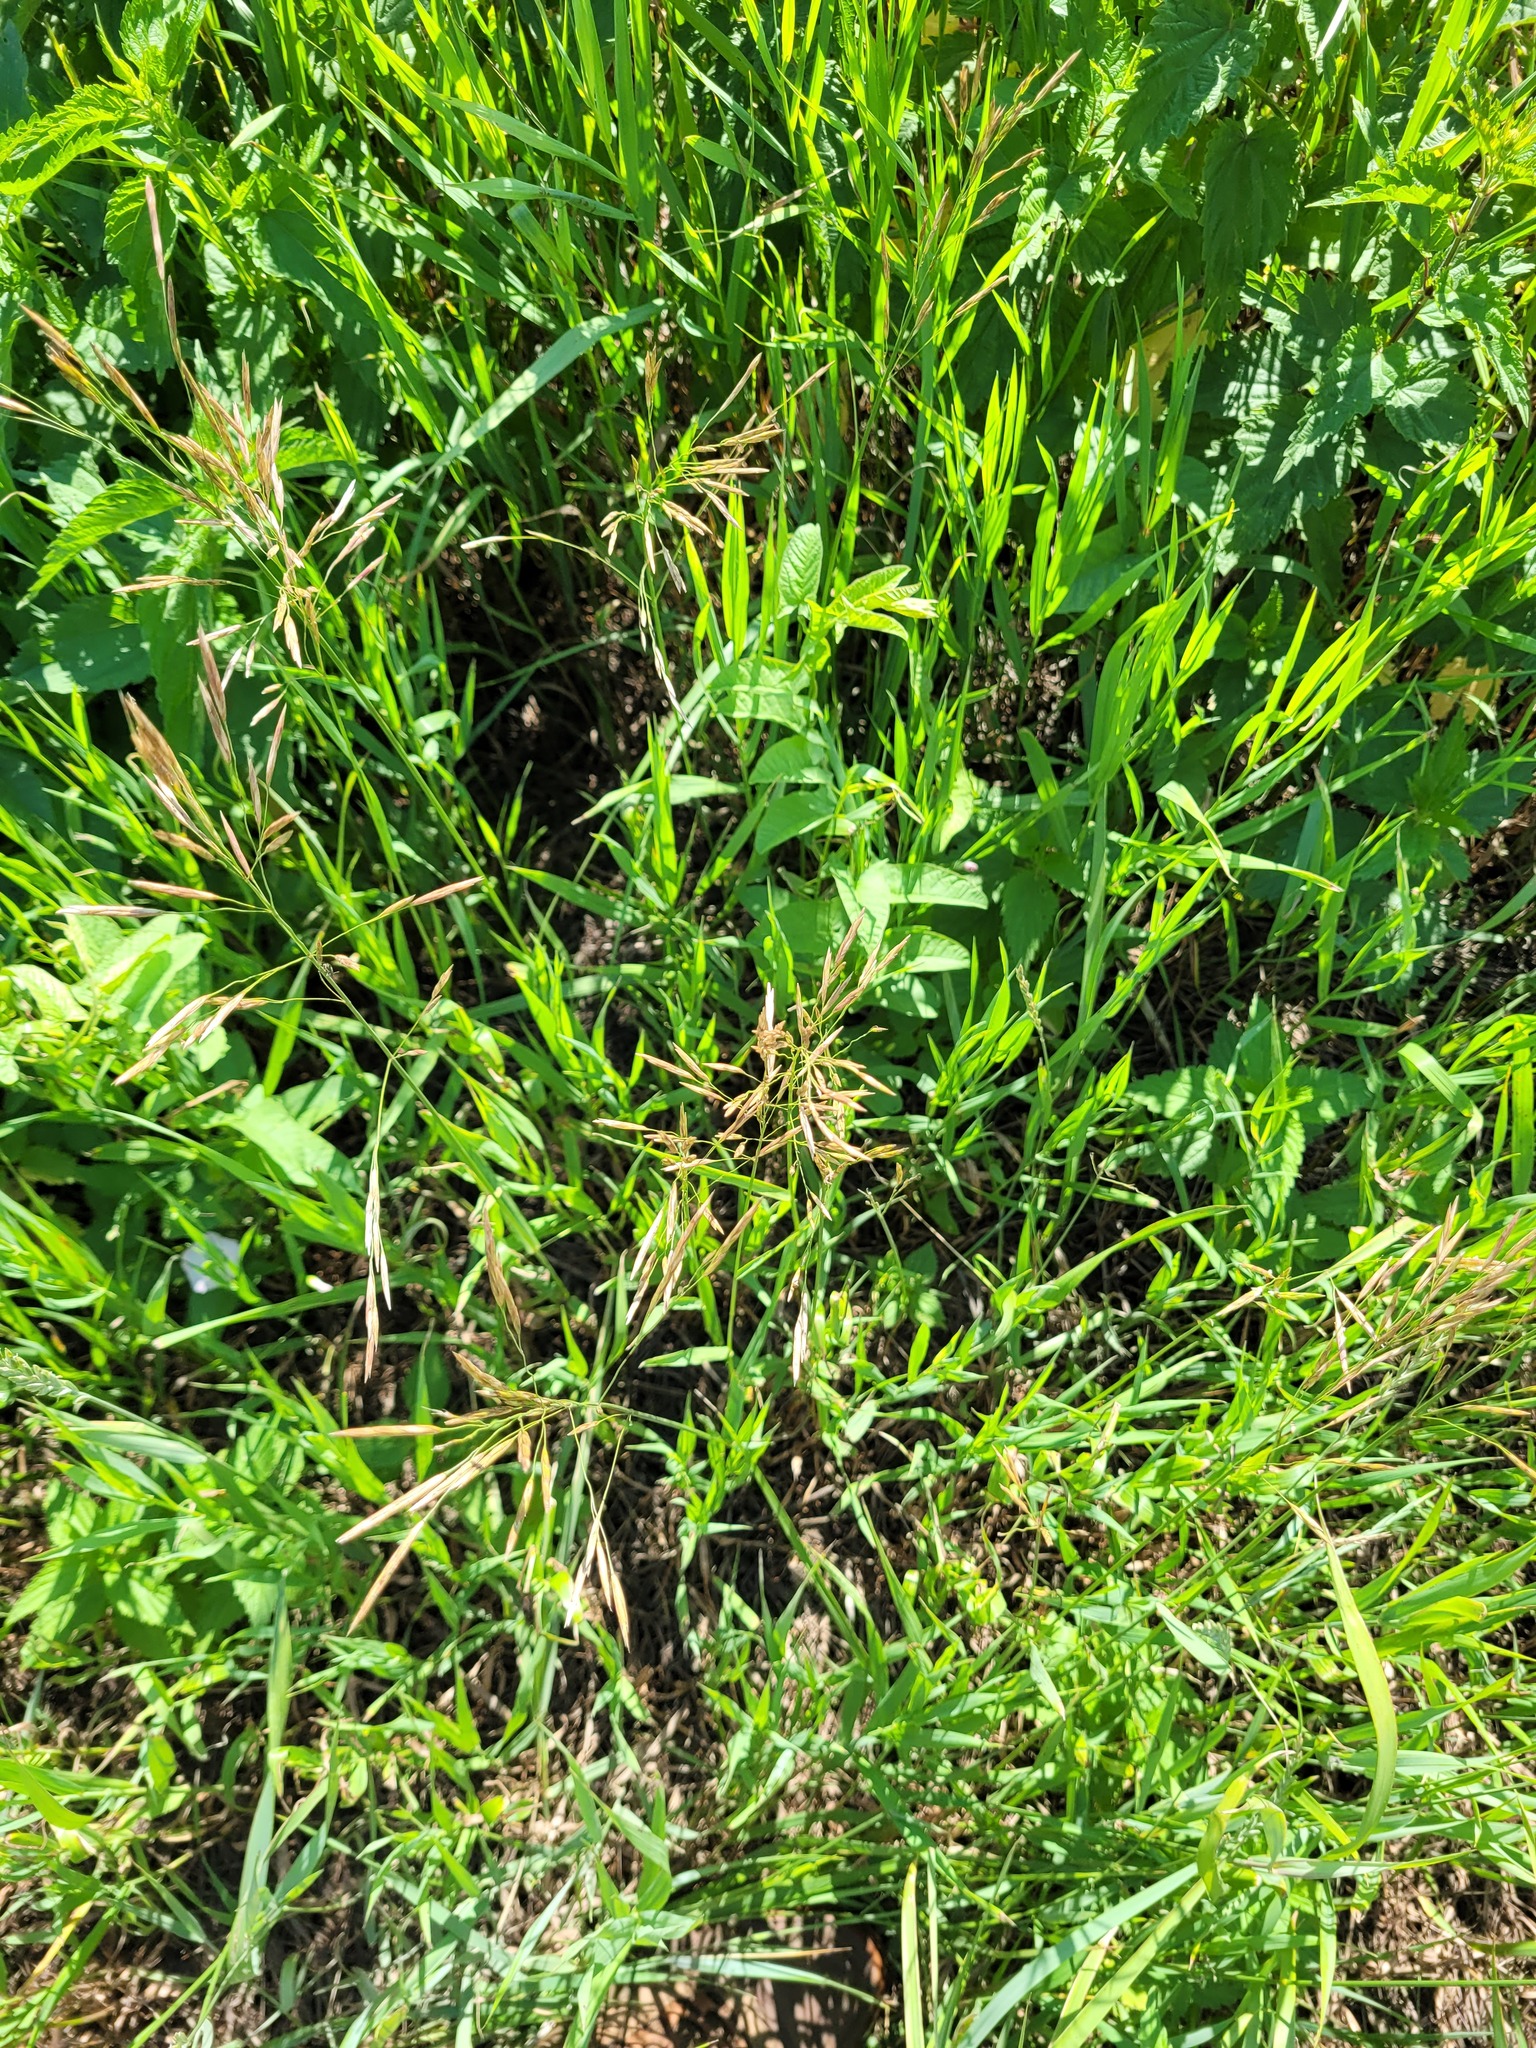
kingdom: Plantae
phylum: Tracheophyta
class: Liliopsida
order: Poales
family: Poaceae
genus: Bromus
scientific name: Bromus inermis
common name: Smooth brome
